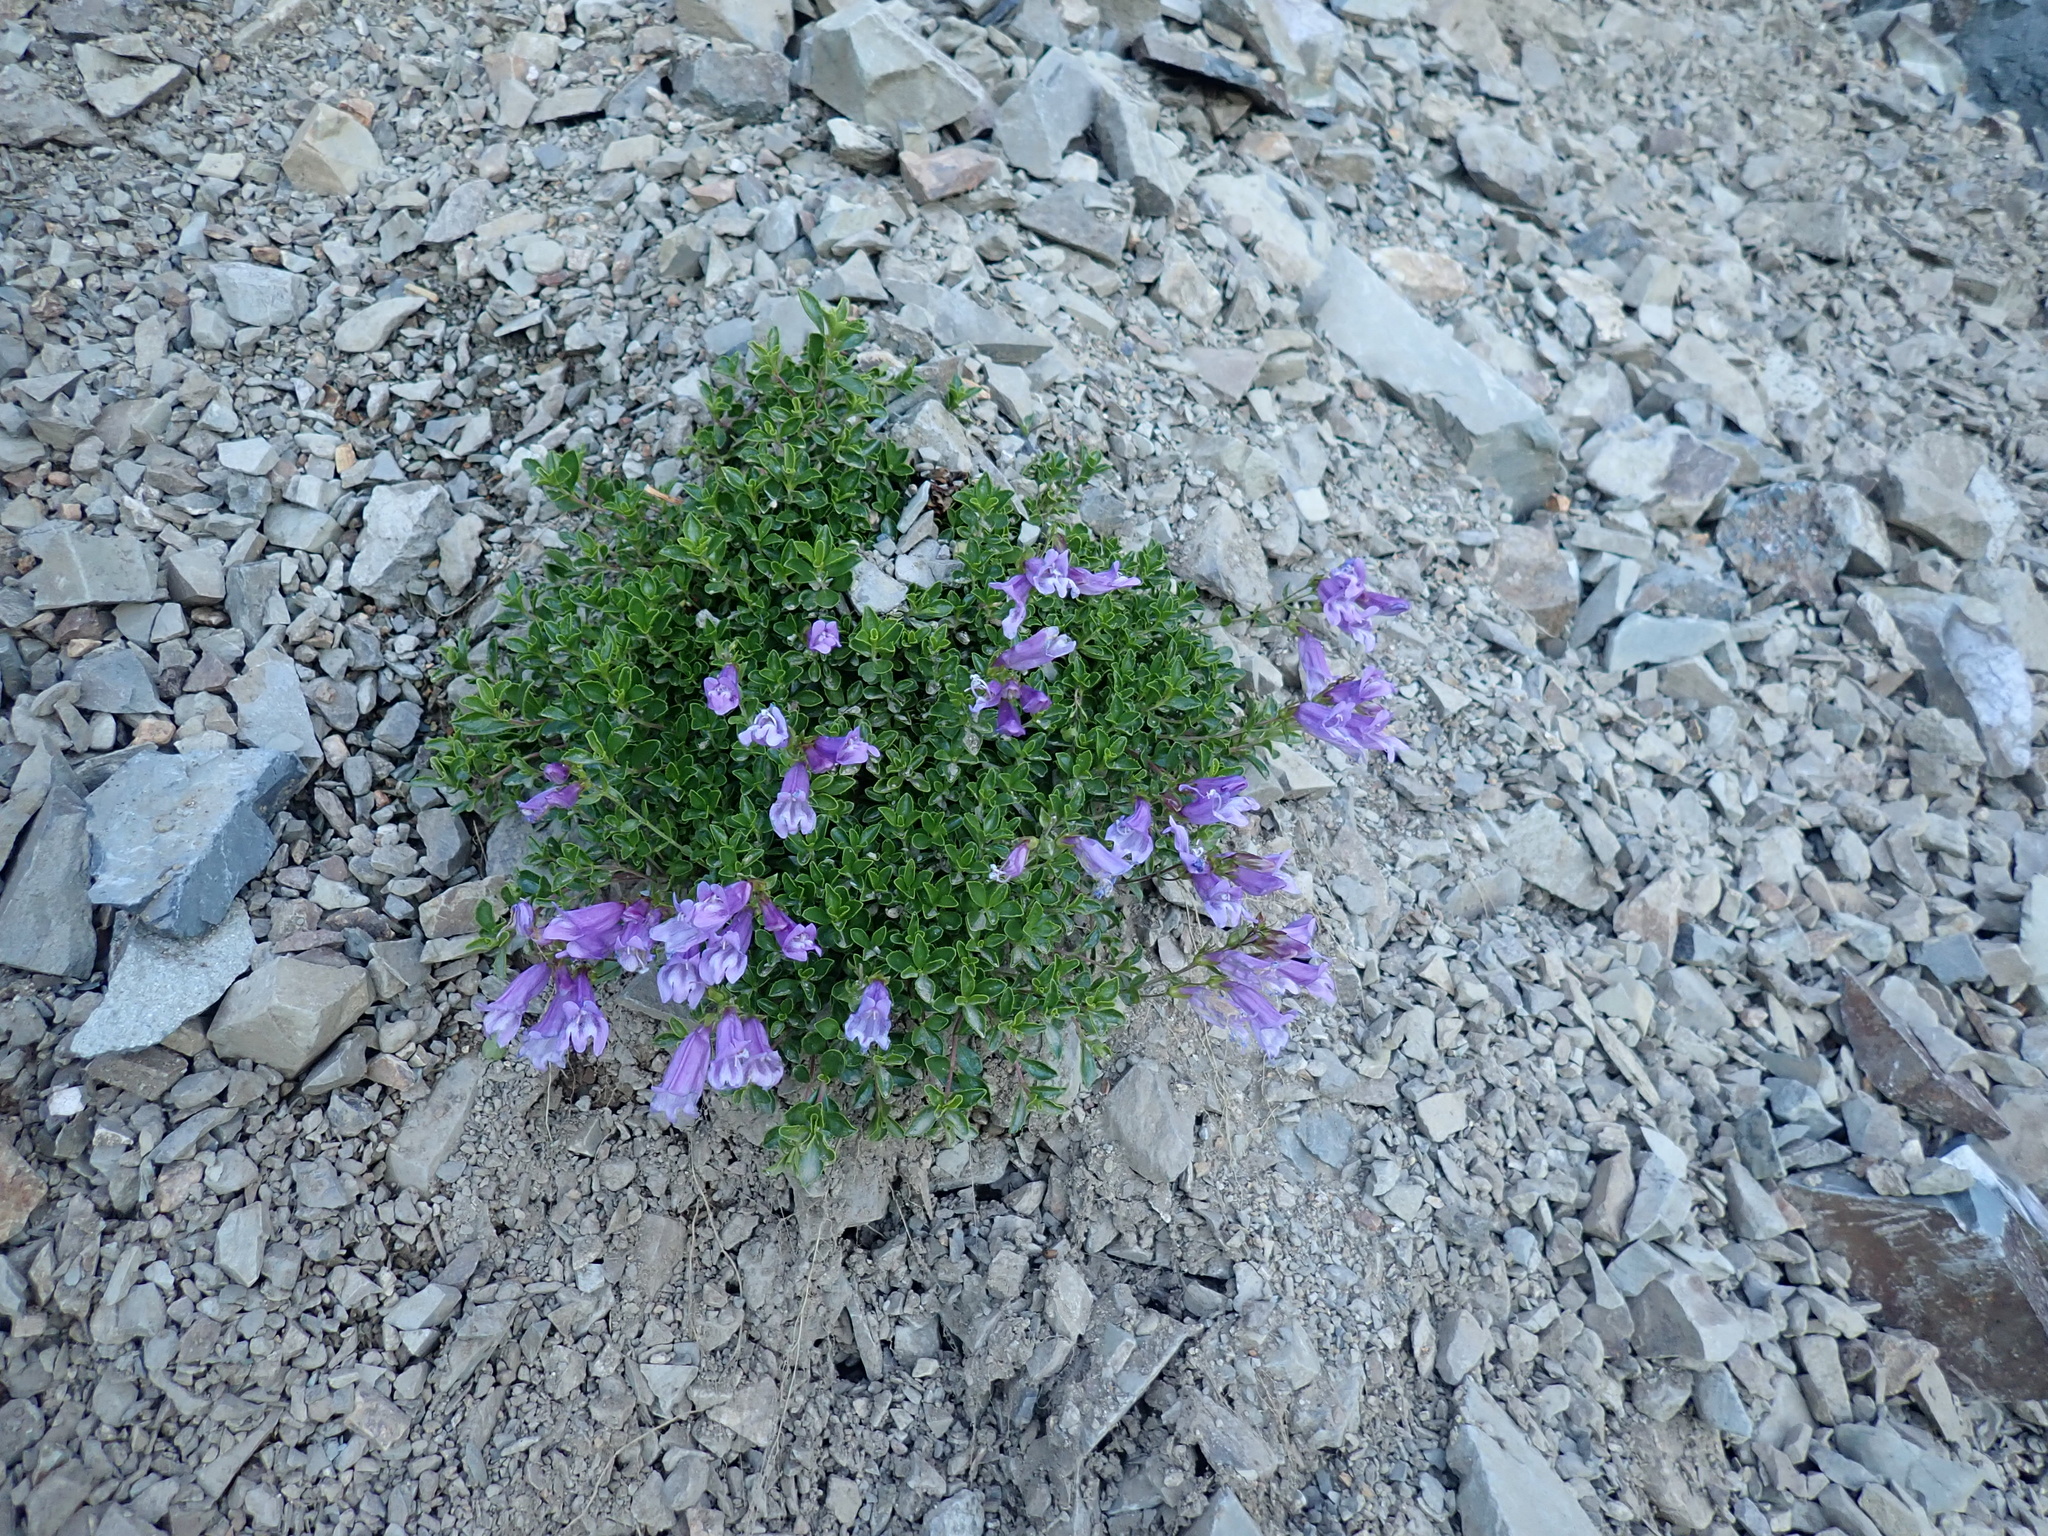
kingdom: Plantae
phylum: Tracheophyta
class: Magnoliopsida
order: Lamiales
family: Plantaginaceae
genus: Penstemon
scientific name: Penstemon davidsonii
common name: Davidson's penstemon
